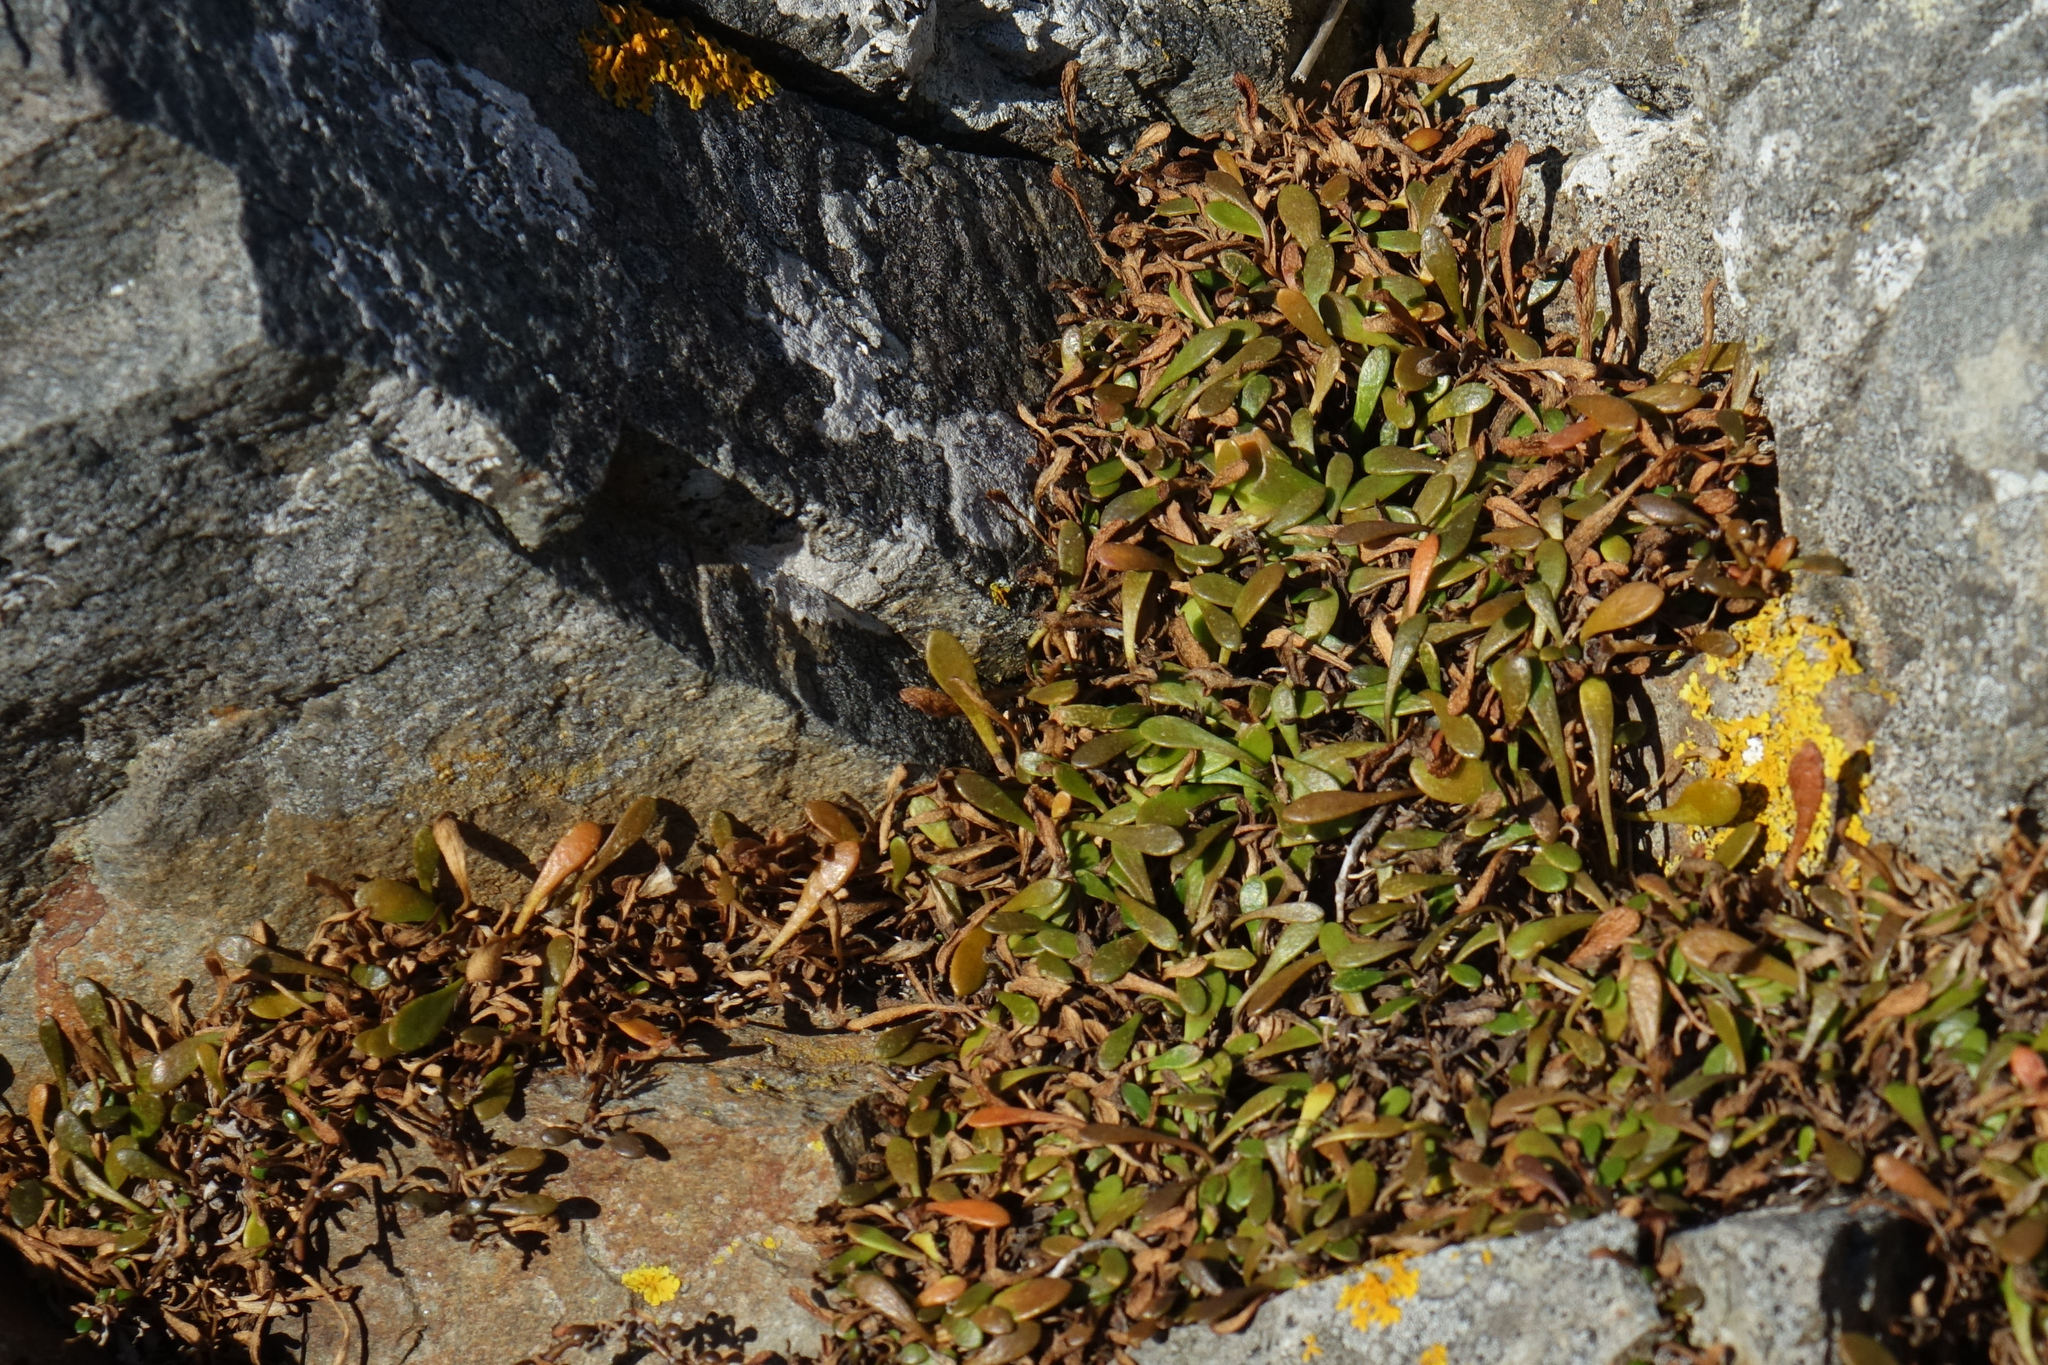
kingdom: Plantae
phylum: Tracheophyta
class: Magnoliopsida
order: Asterales
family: Goodeniaceae
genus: Goodenia
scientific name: Goodenia radicans
